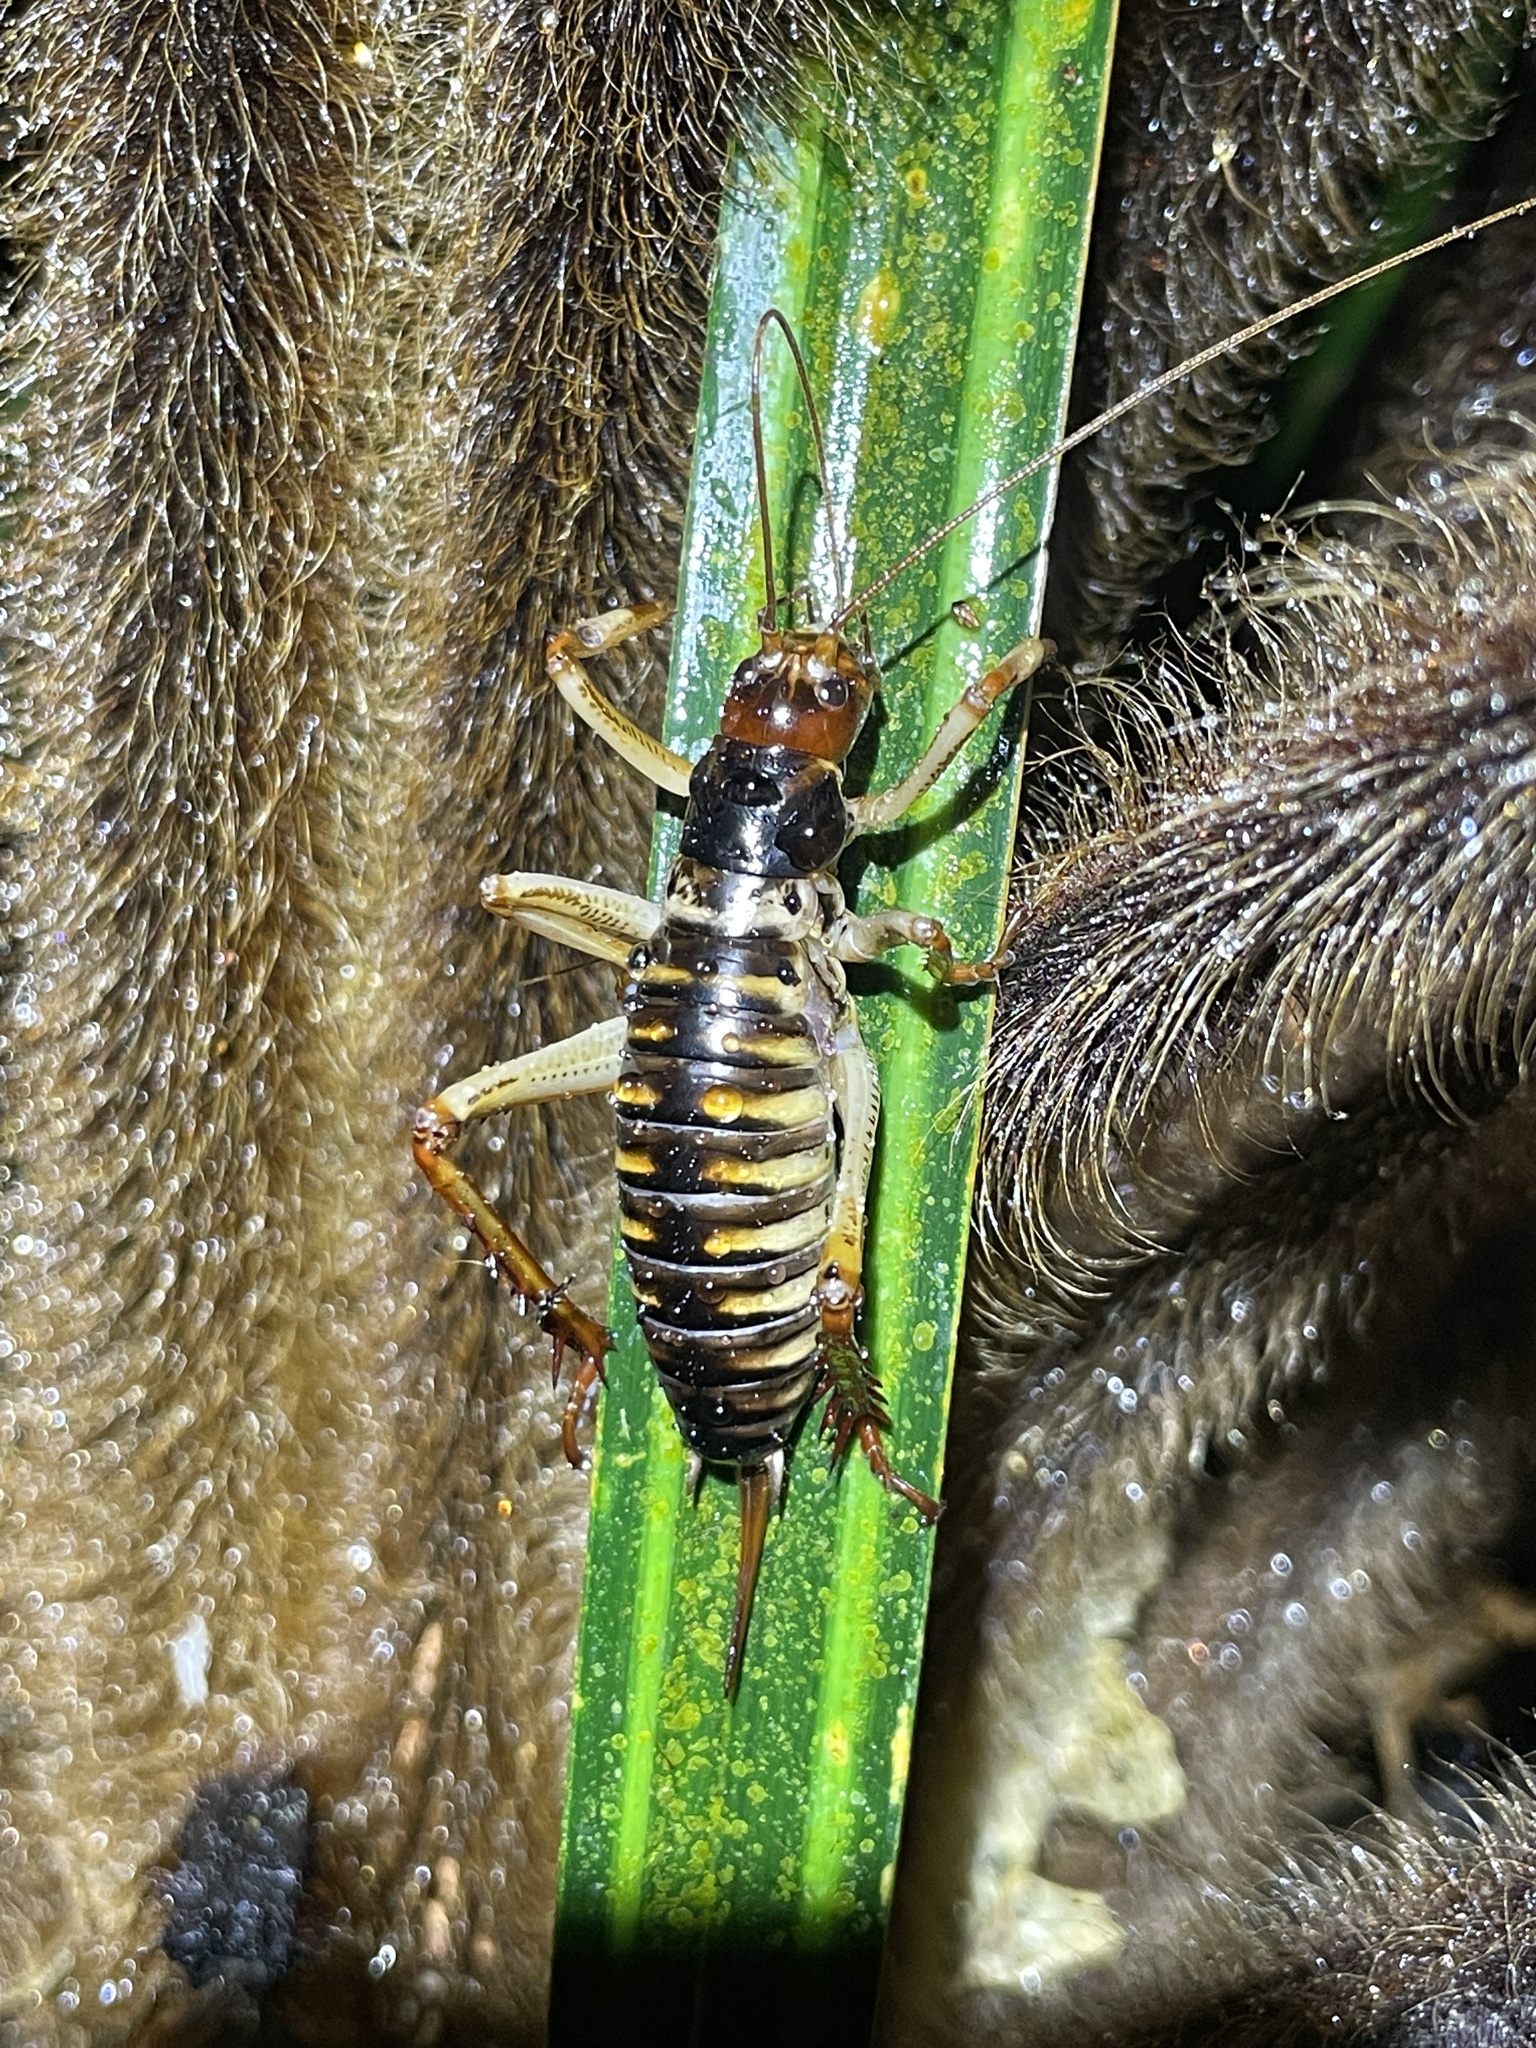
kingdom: Animalia
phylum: Arthropoda
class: Insecta
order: Orthoptera
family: Anostostomatidae
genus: Hemideina
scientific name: Hemideina crassidens
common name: Wellington tree weta
